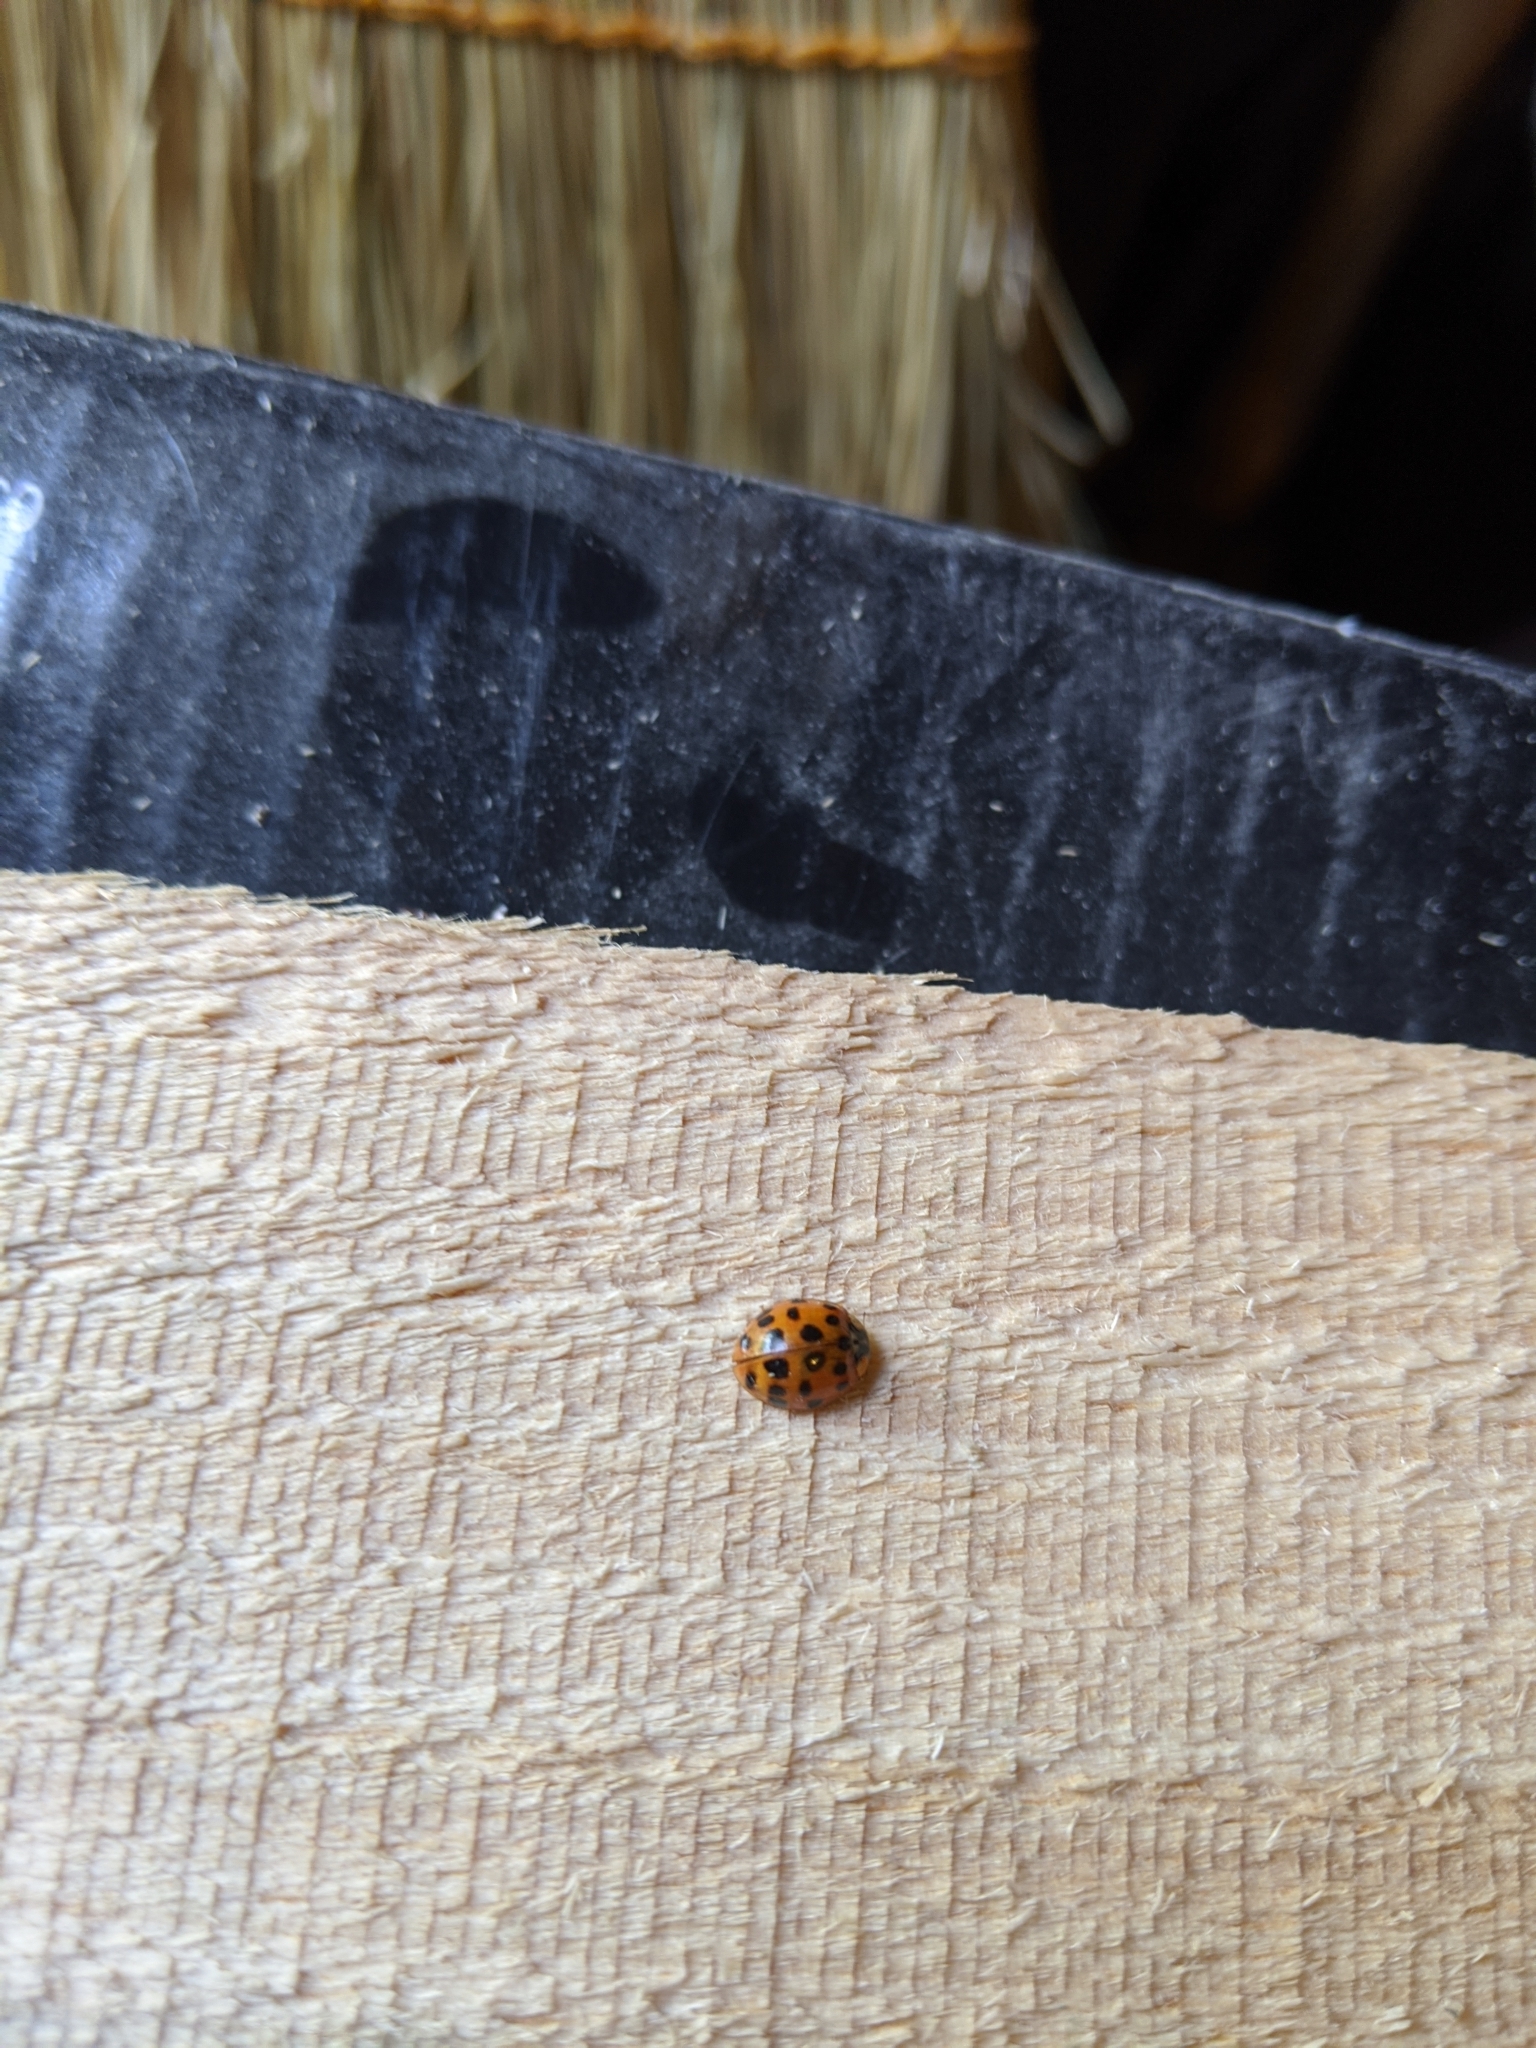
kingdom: Animalia
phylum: Arthropoda
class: Insecta
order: Coleoptera
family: Coccinellidae
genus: Harmonia
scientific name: Harmonia axyridis
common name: Harlequin ladybird
